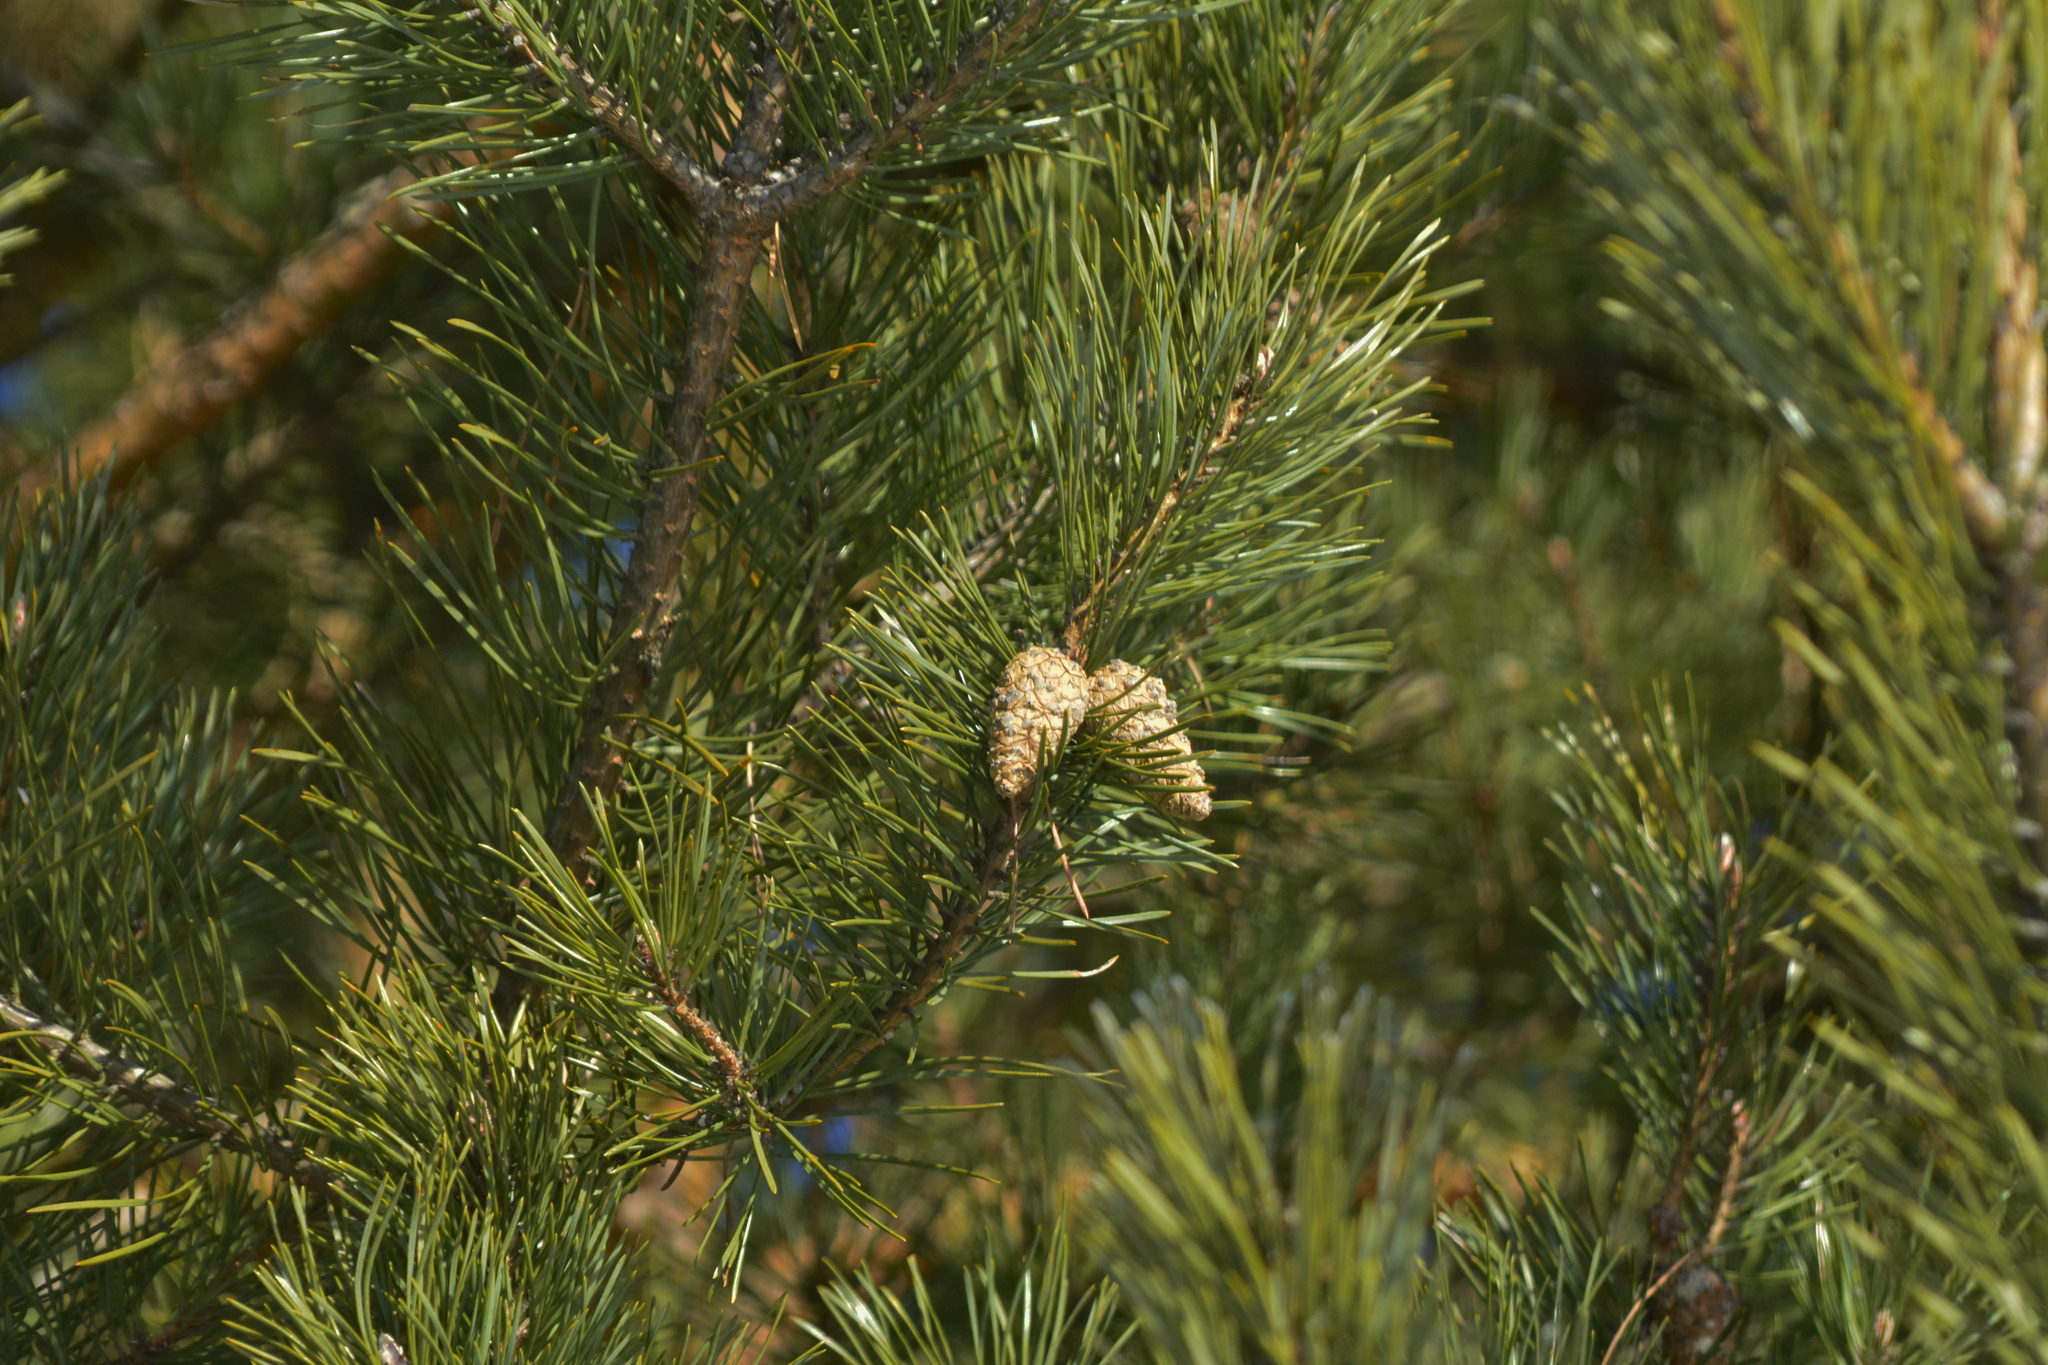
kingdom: Plantae
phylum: Tracheophyta
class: Pinopsida
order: Pinales
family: Pinaceae
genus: Pinus
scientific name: Pinus sylvestris
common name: Scots pine
